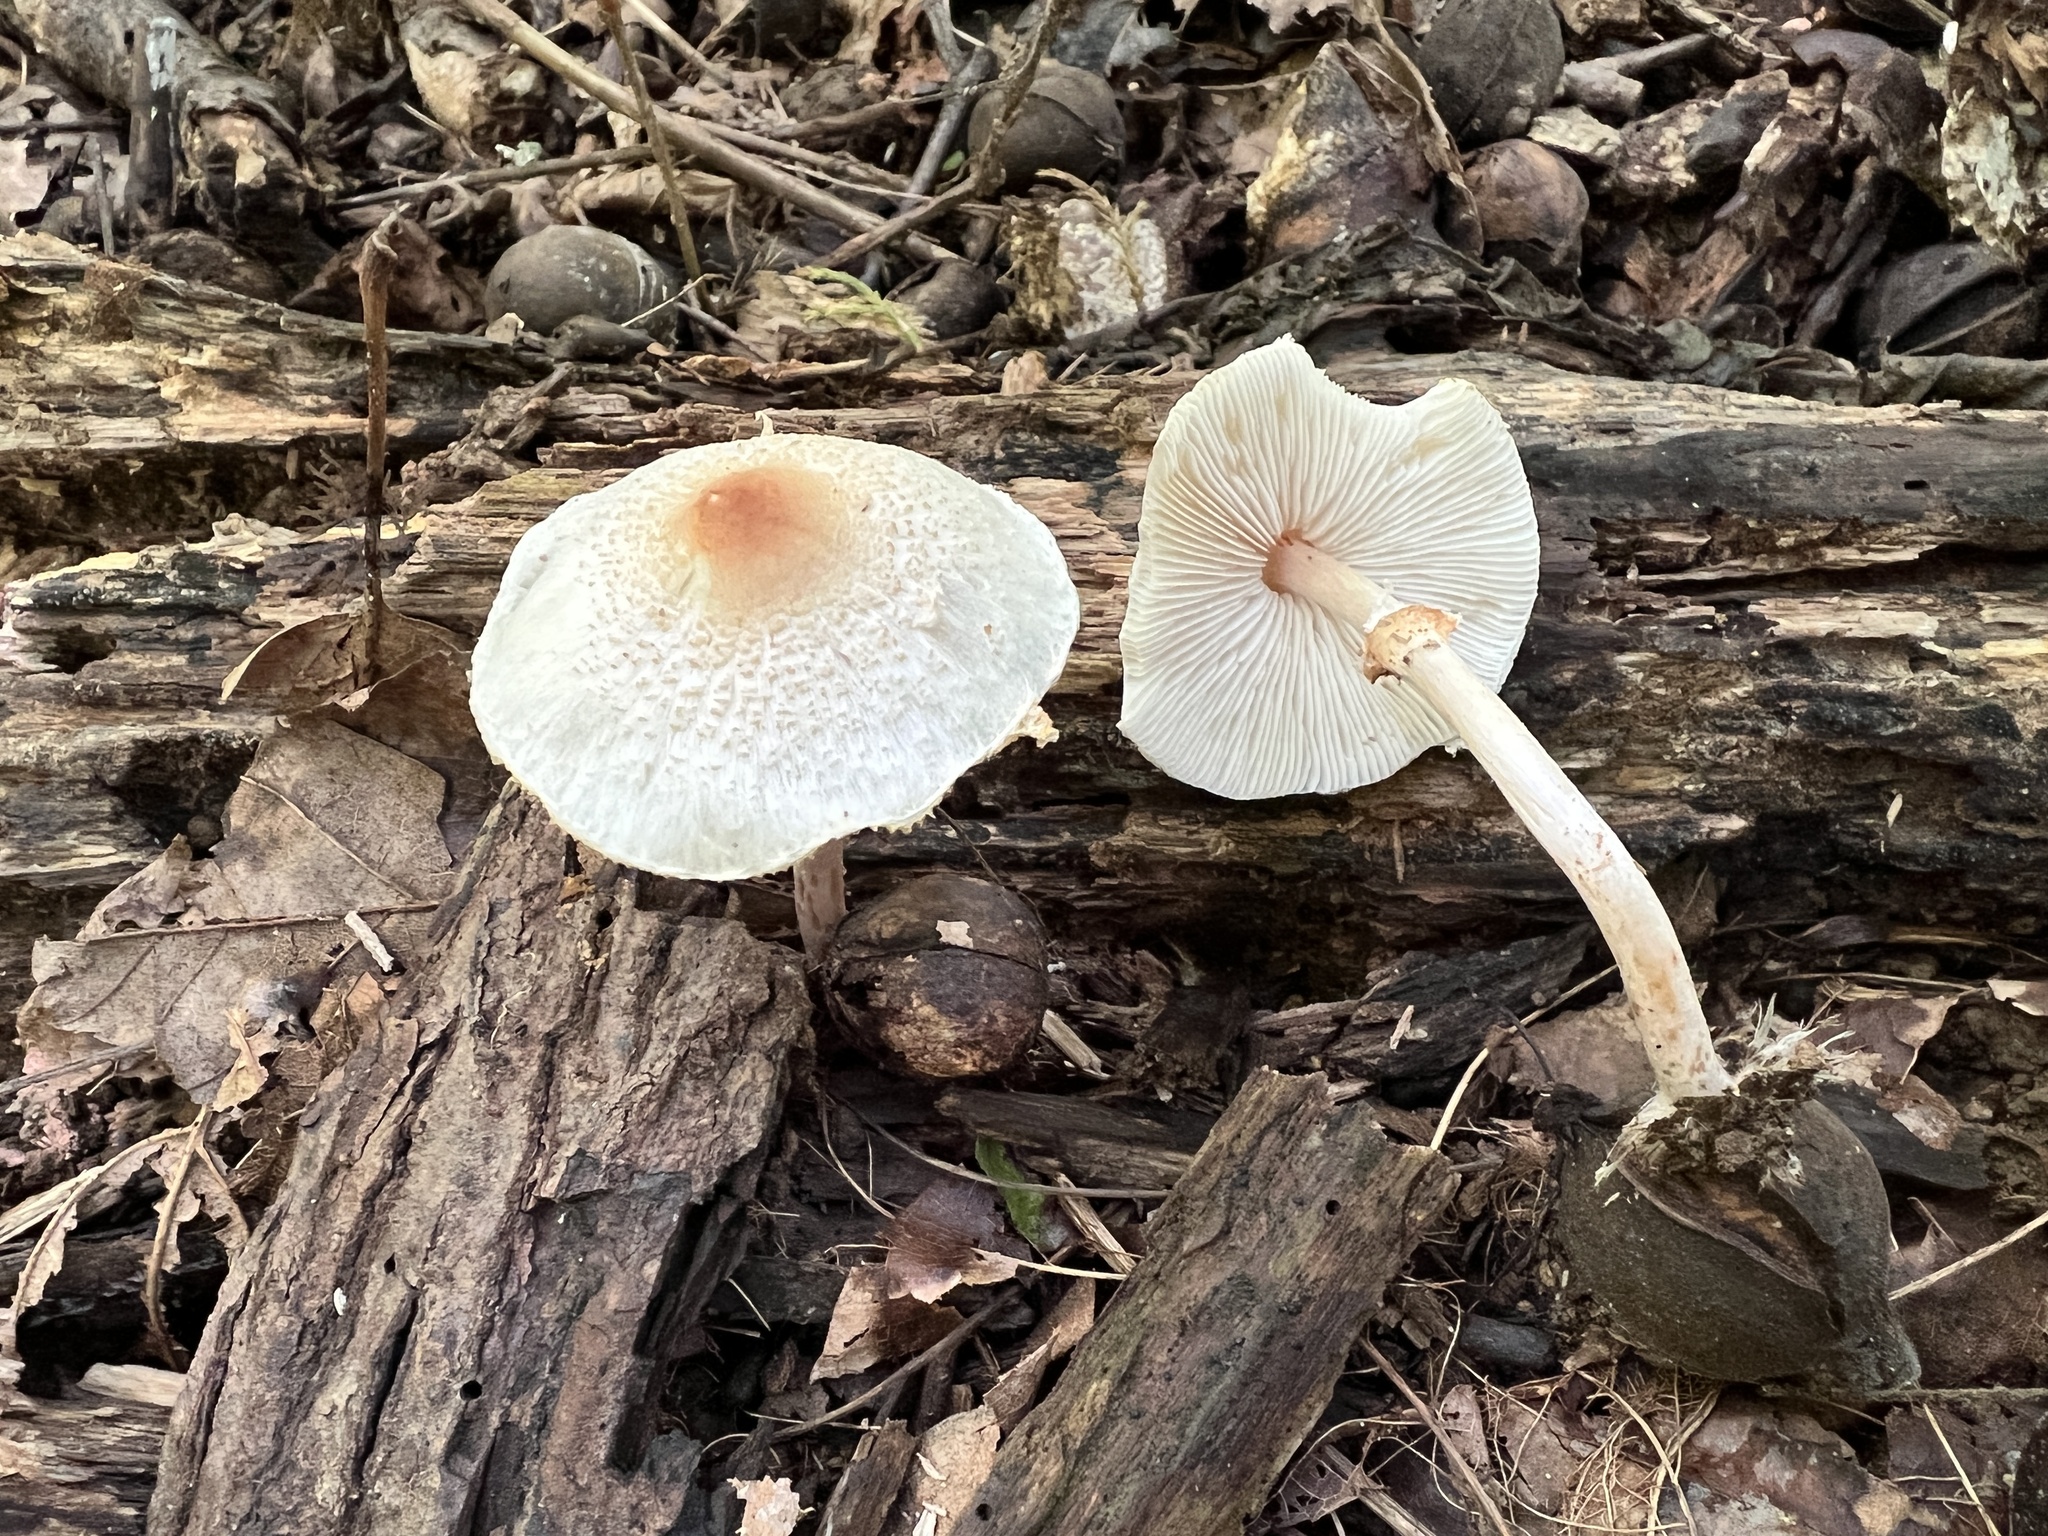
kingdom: Fungi
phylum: Basidiomycota
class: Agaricomycetes
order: Agaricales
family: Agaricaceae
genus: Lepiota
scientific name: Lepiota cristata
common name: Stinking dapperling
